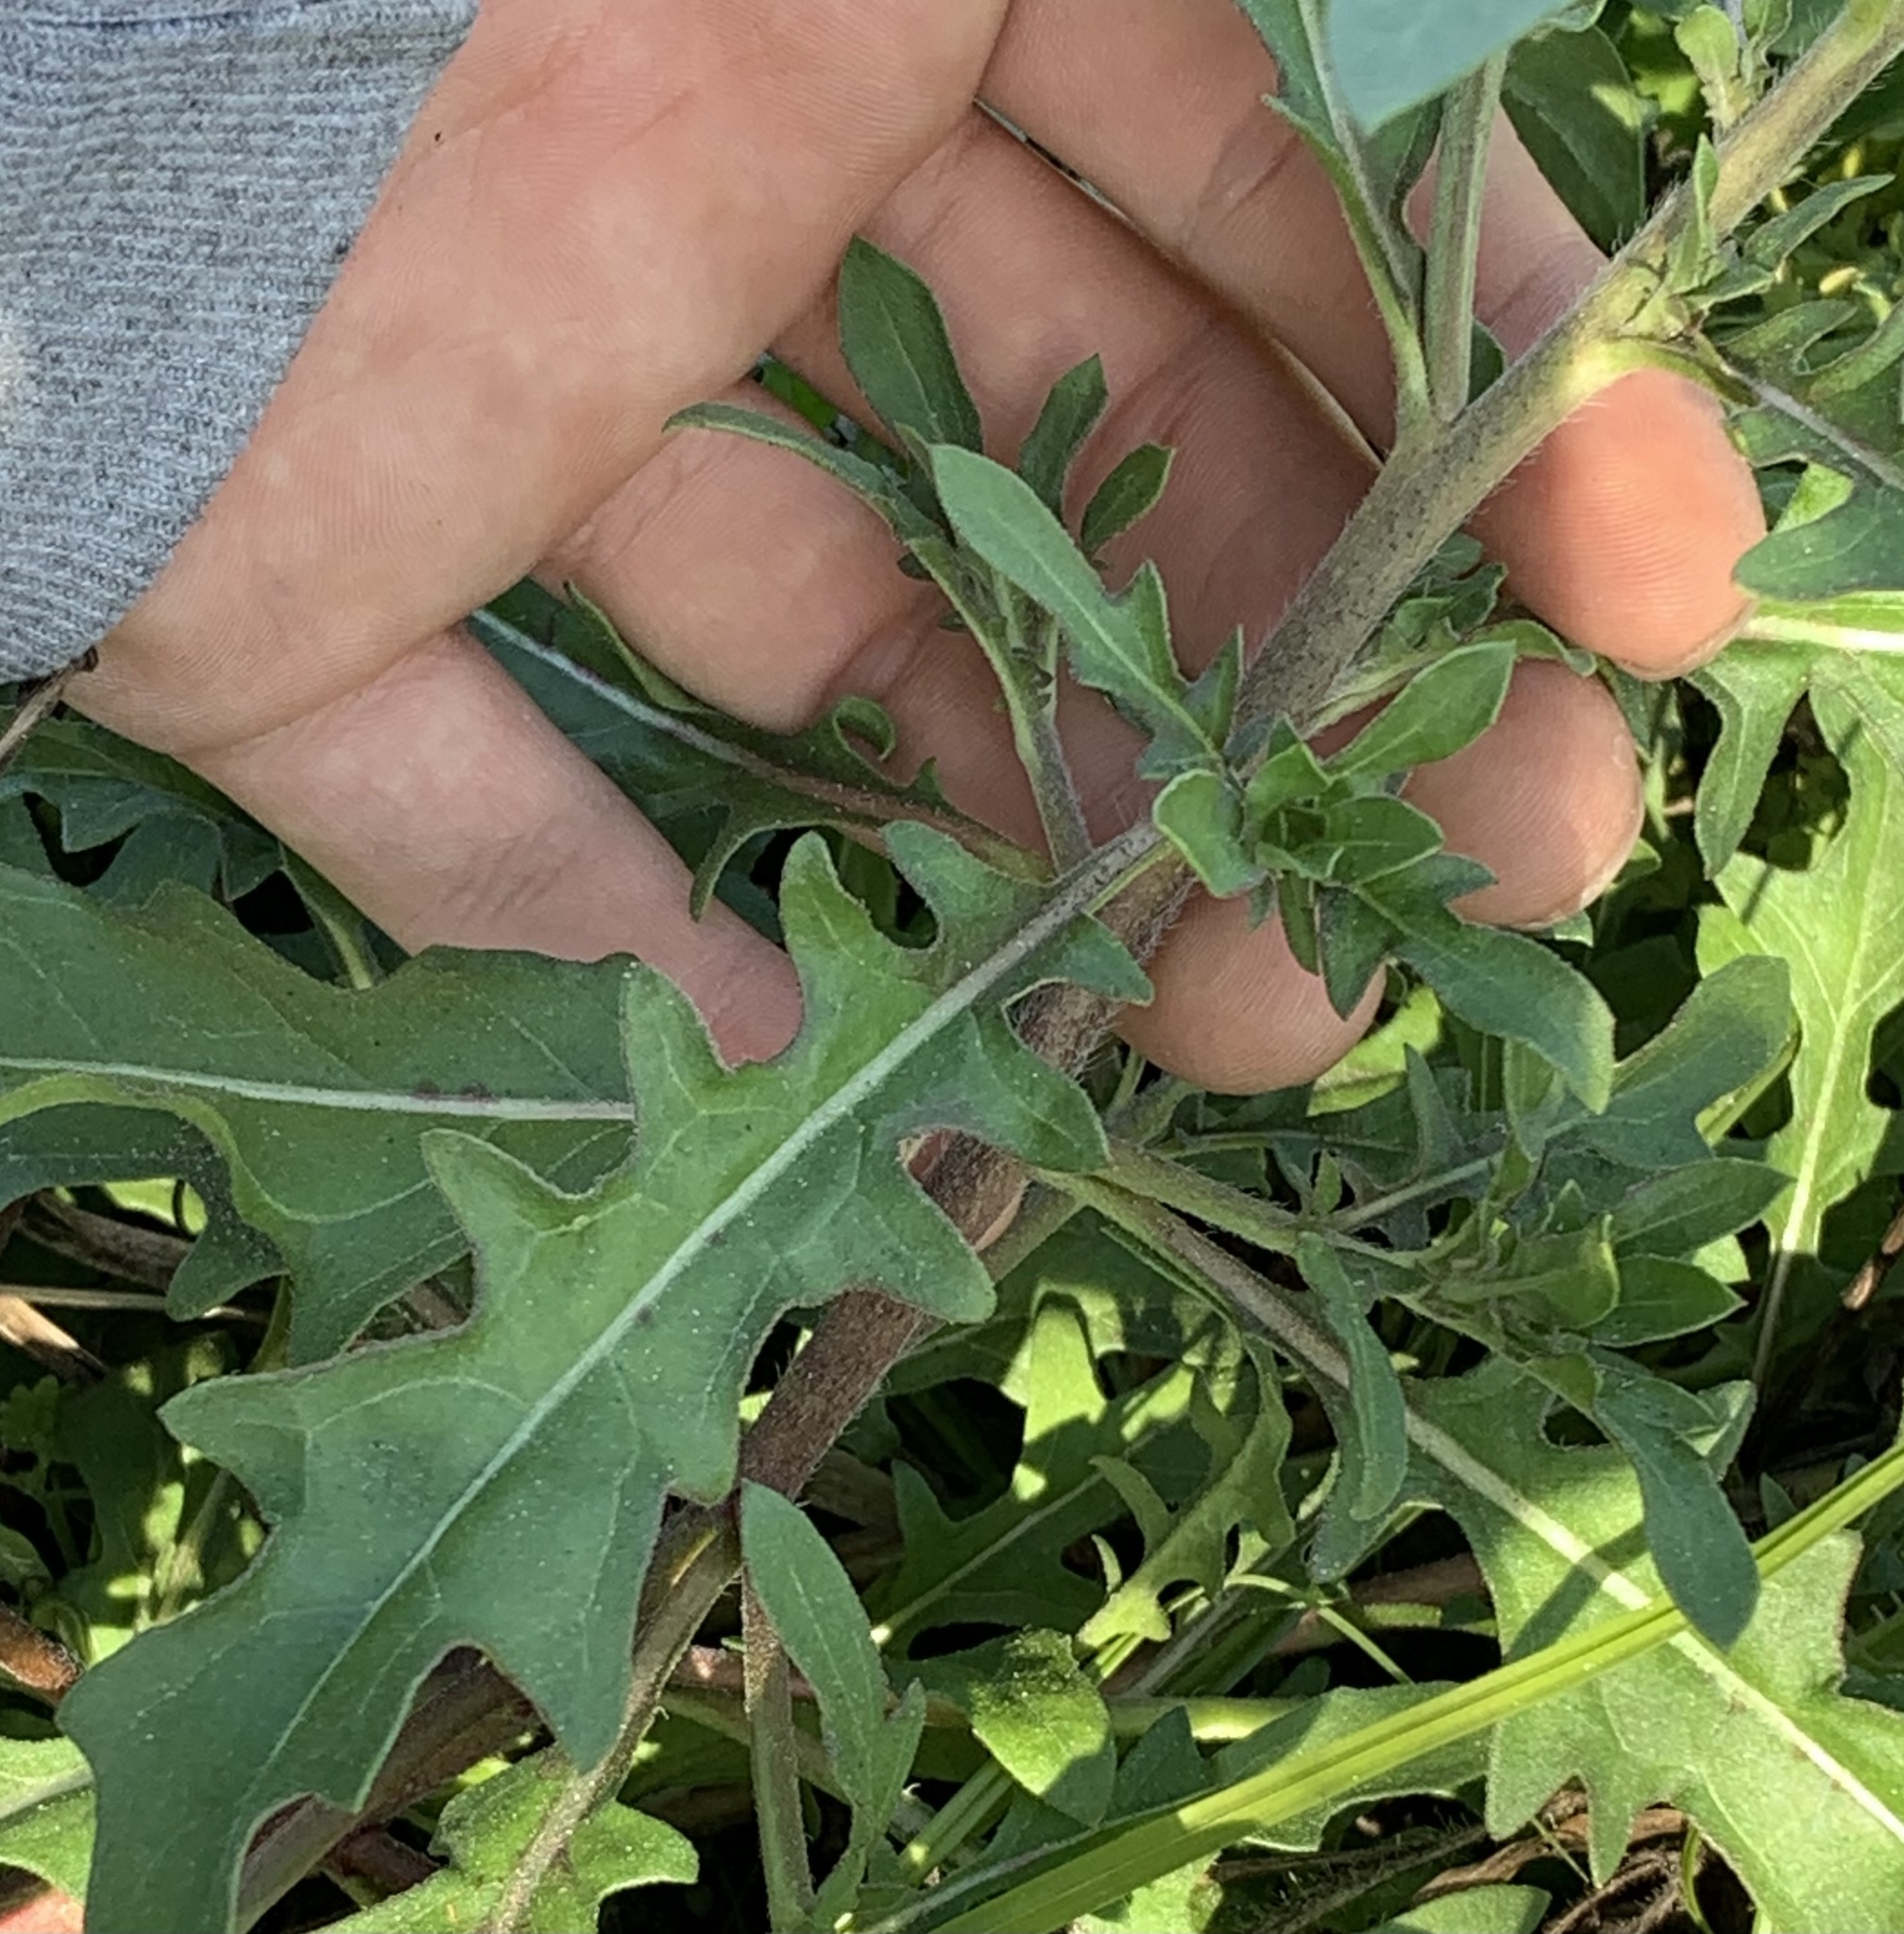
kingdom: Plantae
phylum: Tracheophyta
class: Magnoliopsida
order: Myrtales
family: Onagraceae
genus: Oenothera
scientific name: Oenothera laciniata
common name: Cut-leaved evening-primrose
